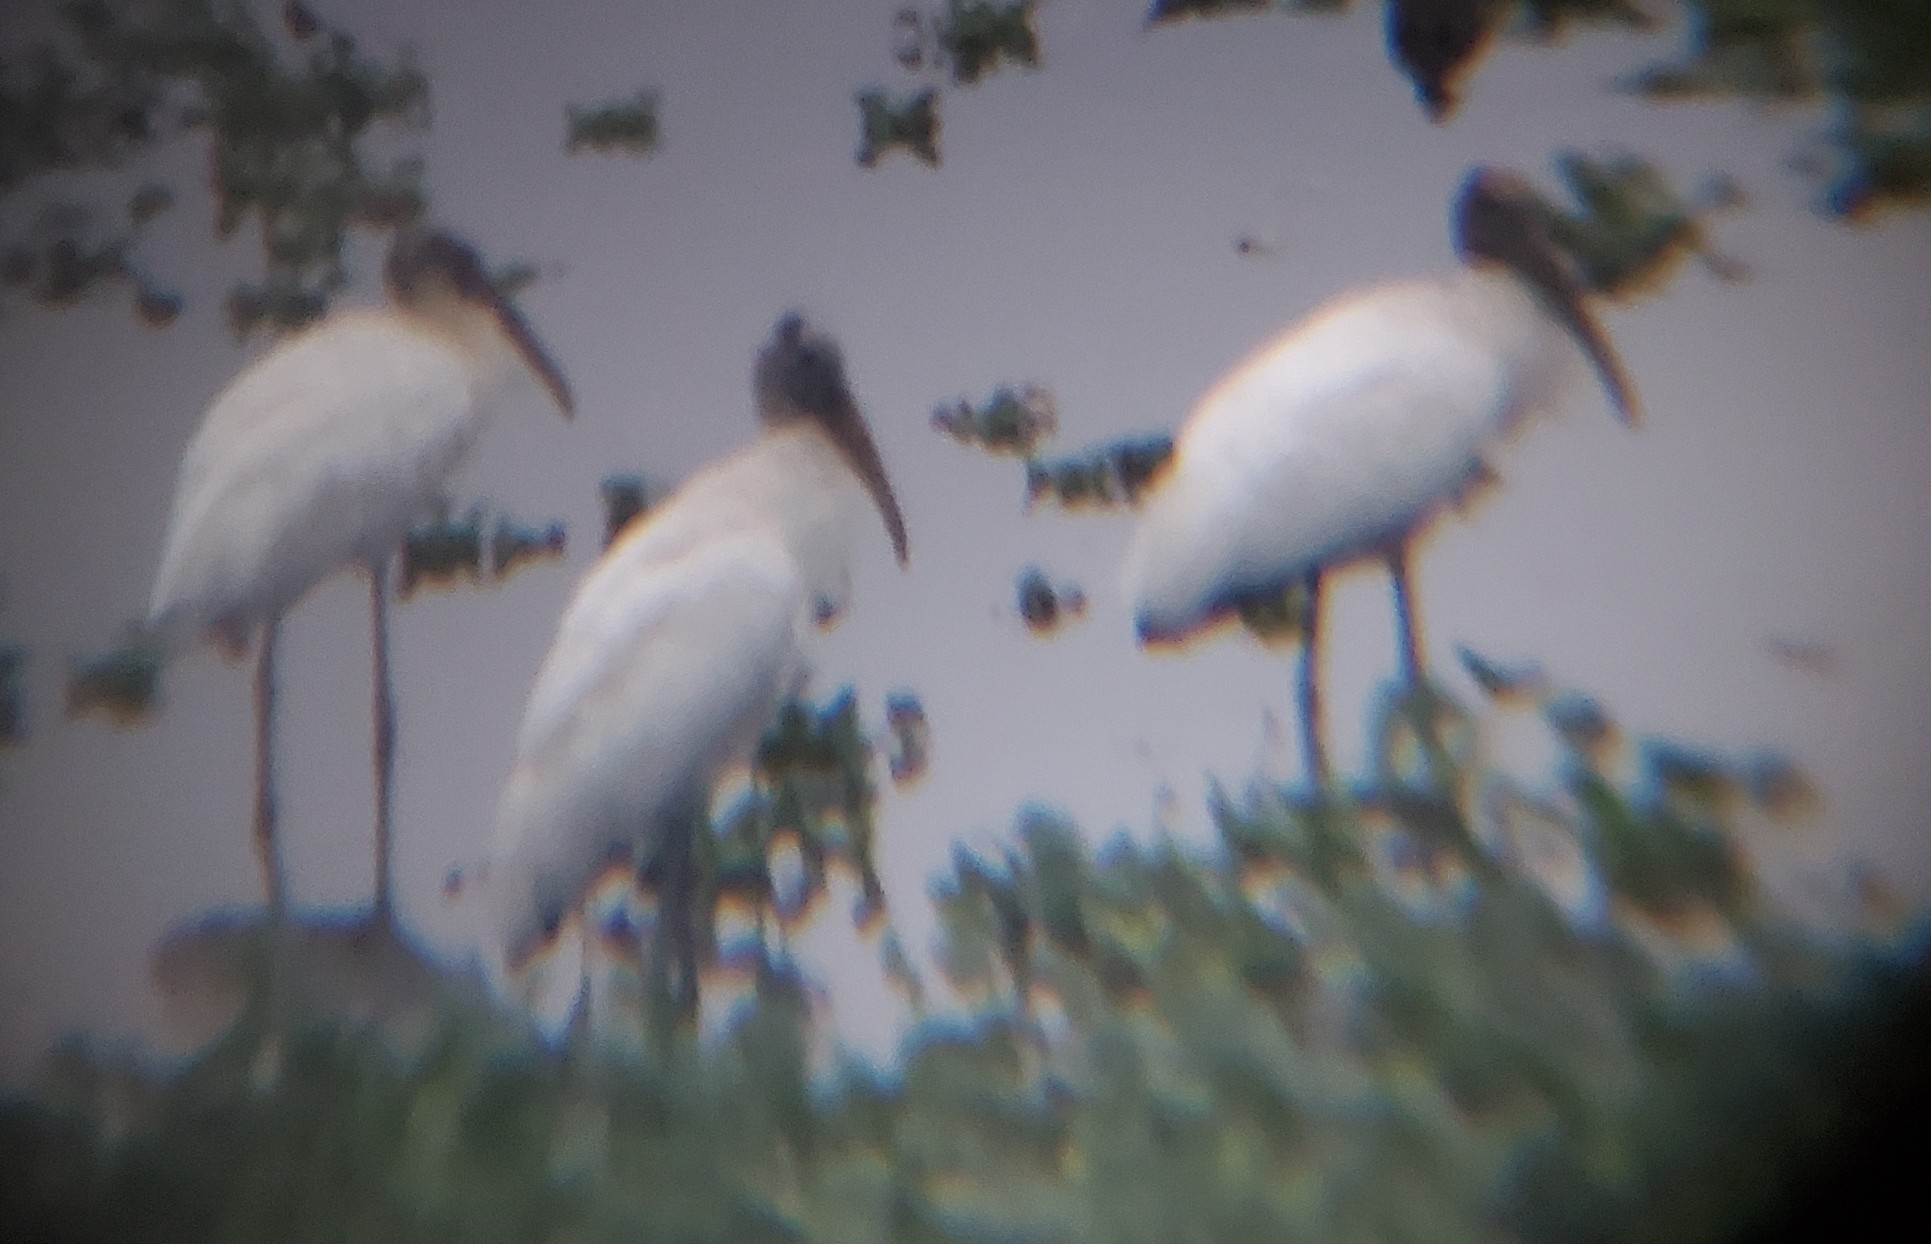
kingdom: Animalia
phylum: Chordata
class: Aves
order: Ciconiiformes
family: Ciconiidae
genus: Mycteria
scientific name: Mycteria americana
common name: Wood stork
